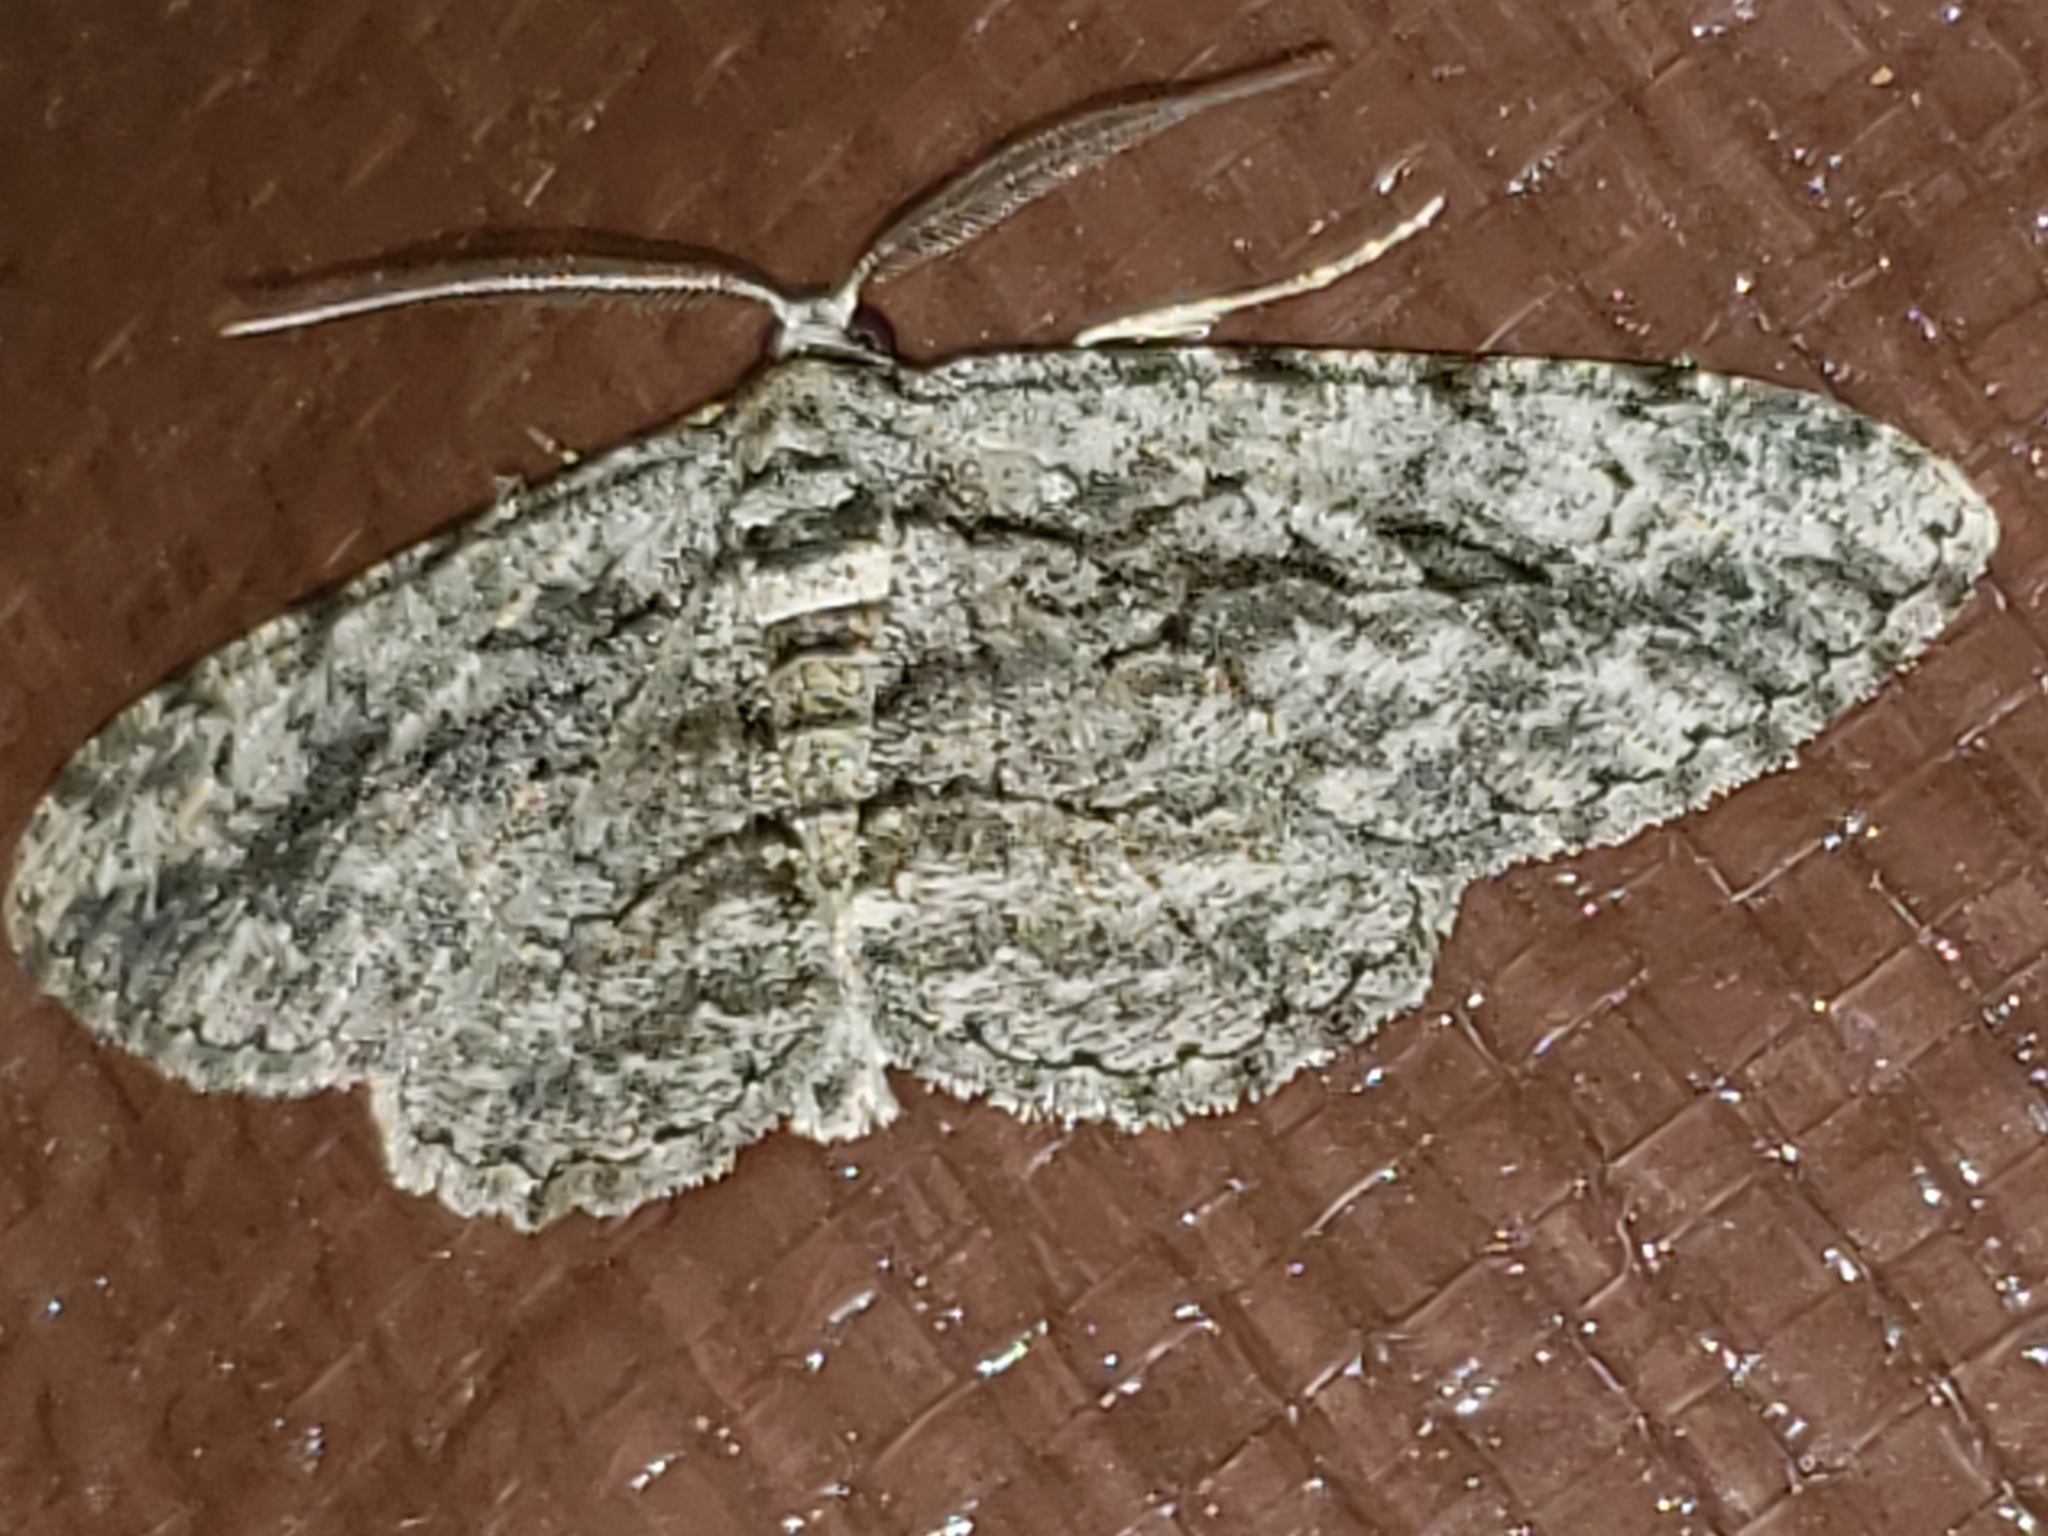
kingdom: Animalia
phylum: Arthropoda
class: Insecta
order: Lepidoptera
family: Geometridae
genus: Anavitrinella
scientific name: Anavitrinella pampinaria
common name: Common gray
